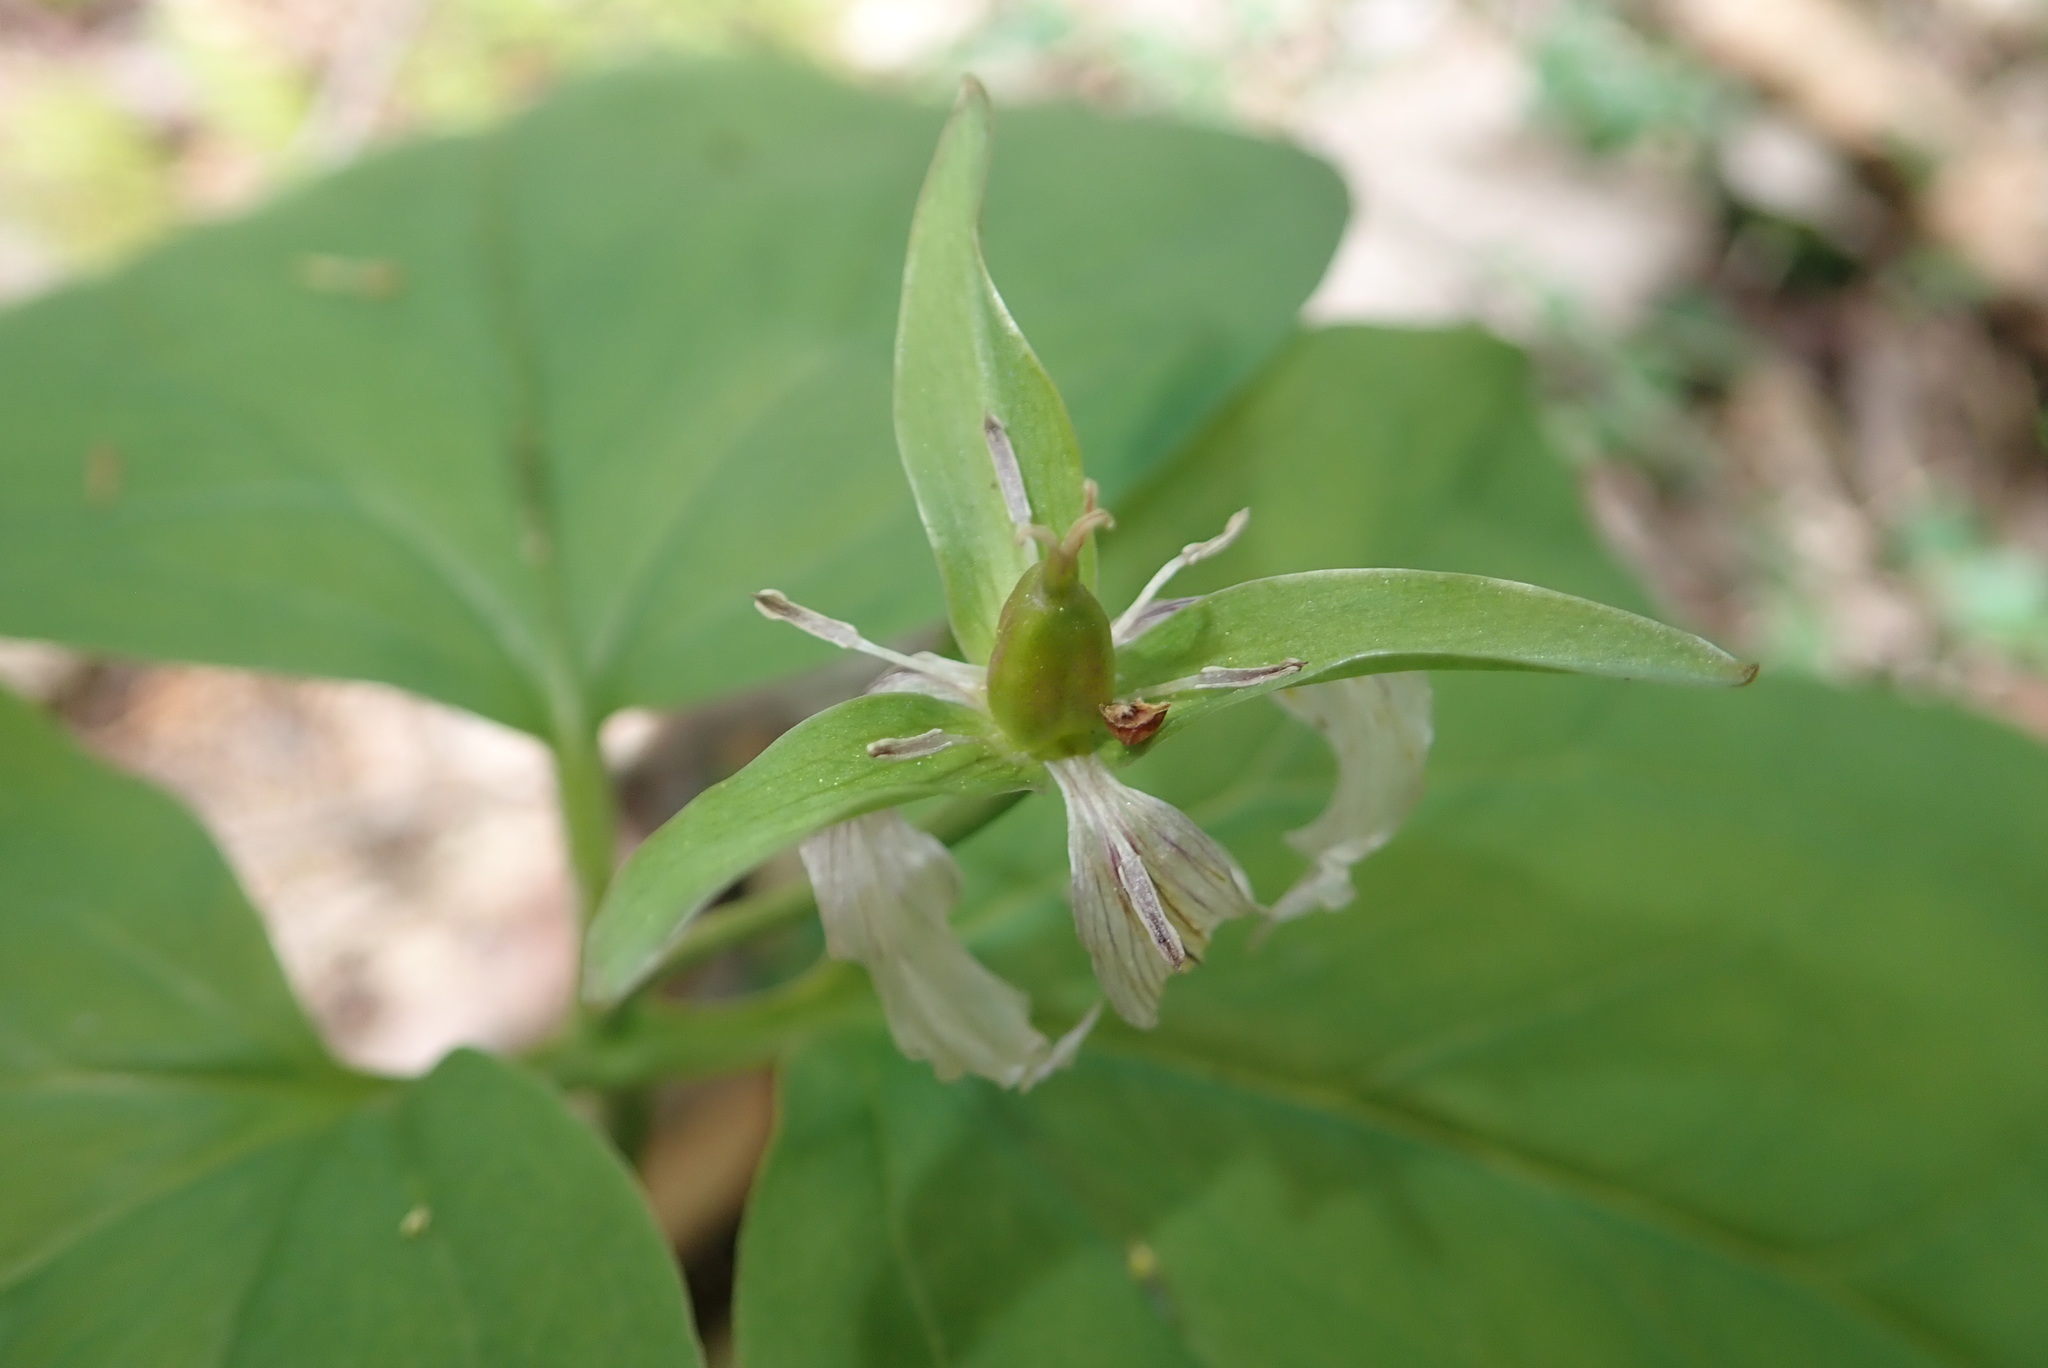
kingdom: Plantae
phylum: Tracheophyta
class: Liliopsida
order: Liliales
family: Melanthiaceae
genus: Trillium
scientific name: Trillium undulatum
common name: Paint trillium
